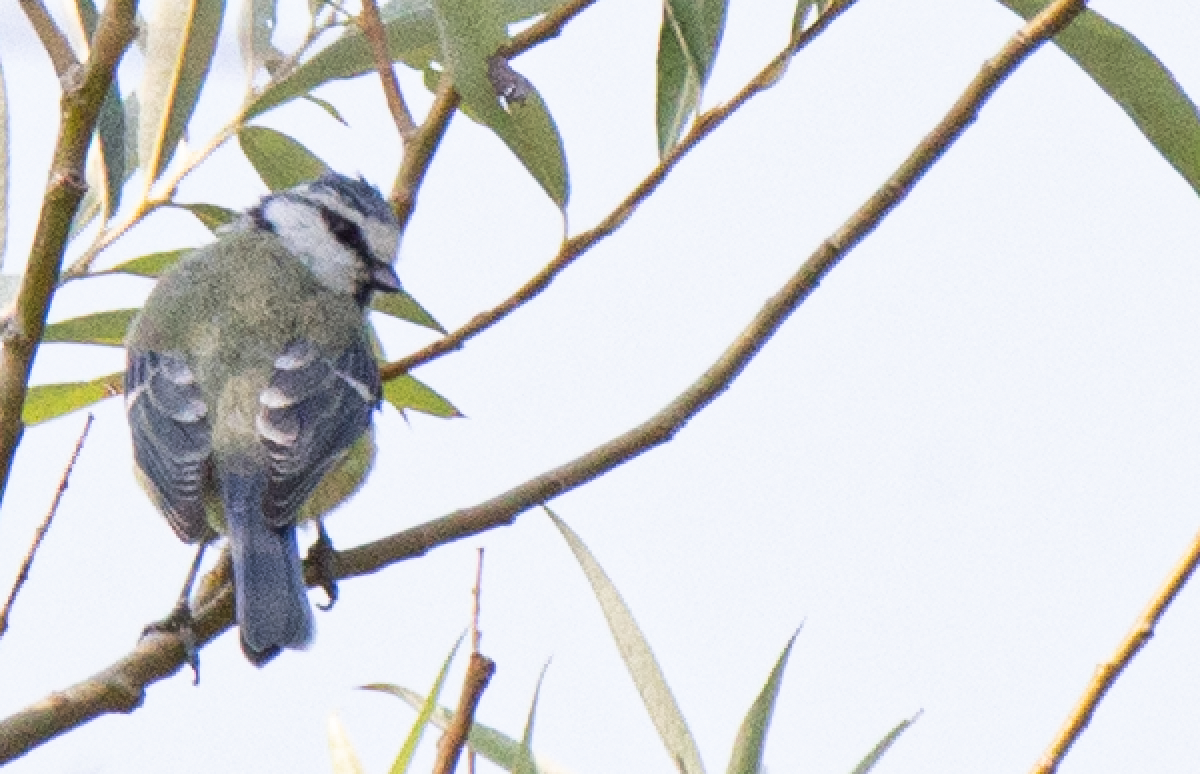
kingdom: Animalia
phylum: Chordata
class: Aves
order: Passeriformes
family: Paridae
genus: Cyanistes
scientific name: Cyanistes caeruleus
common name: Eurasian blue tit
